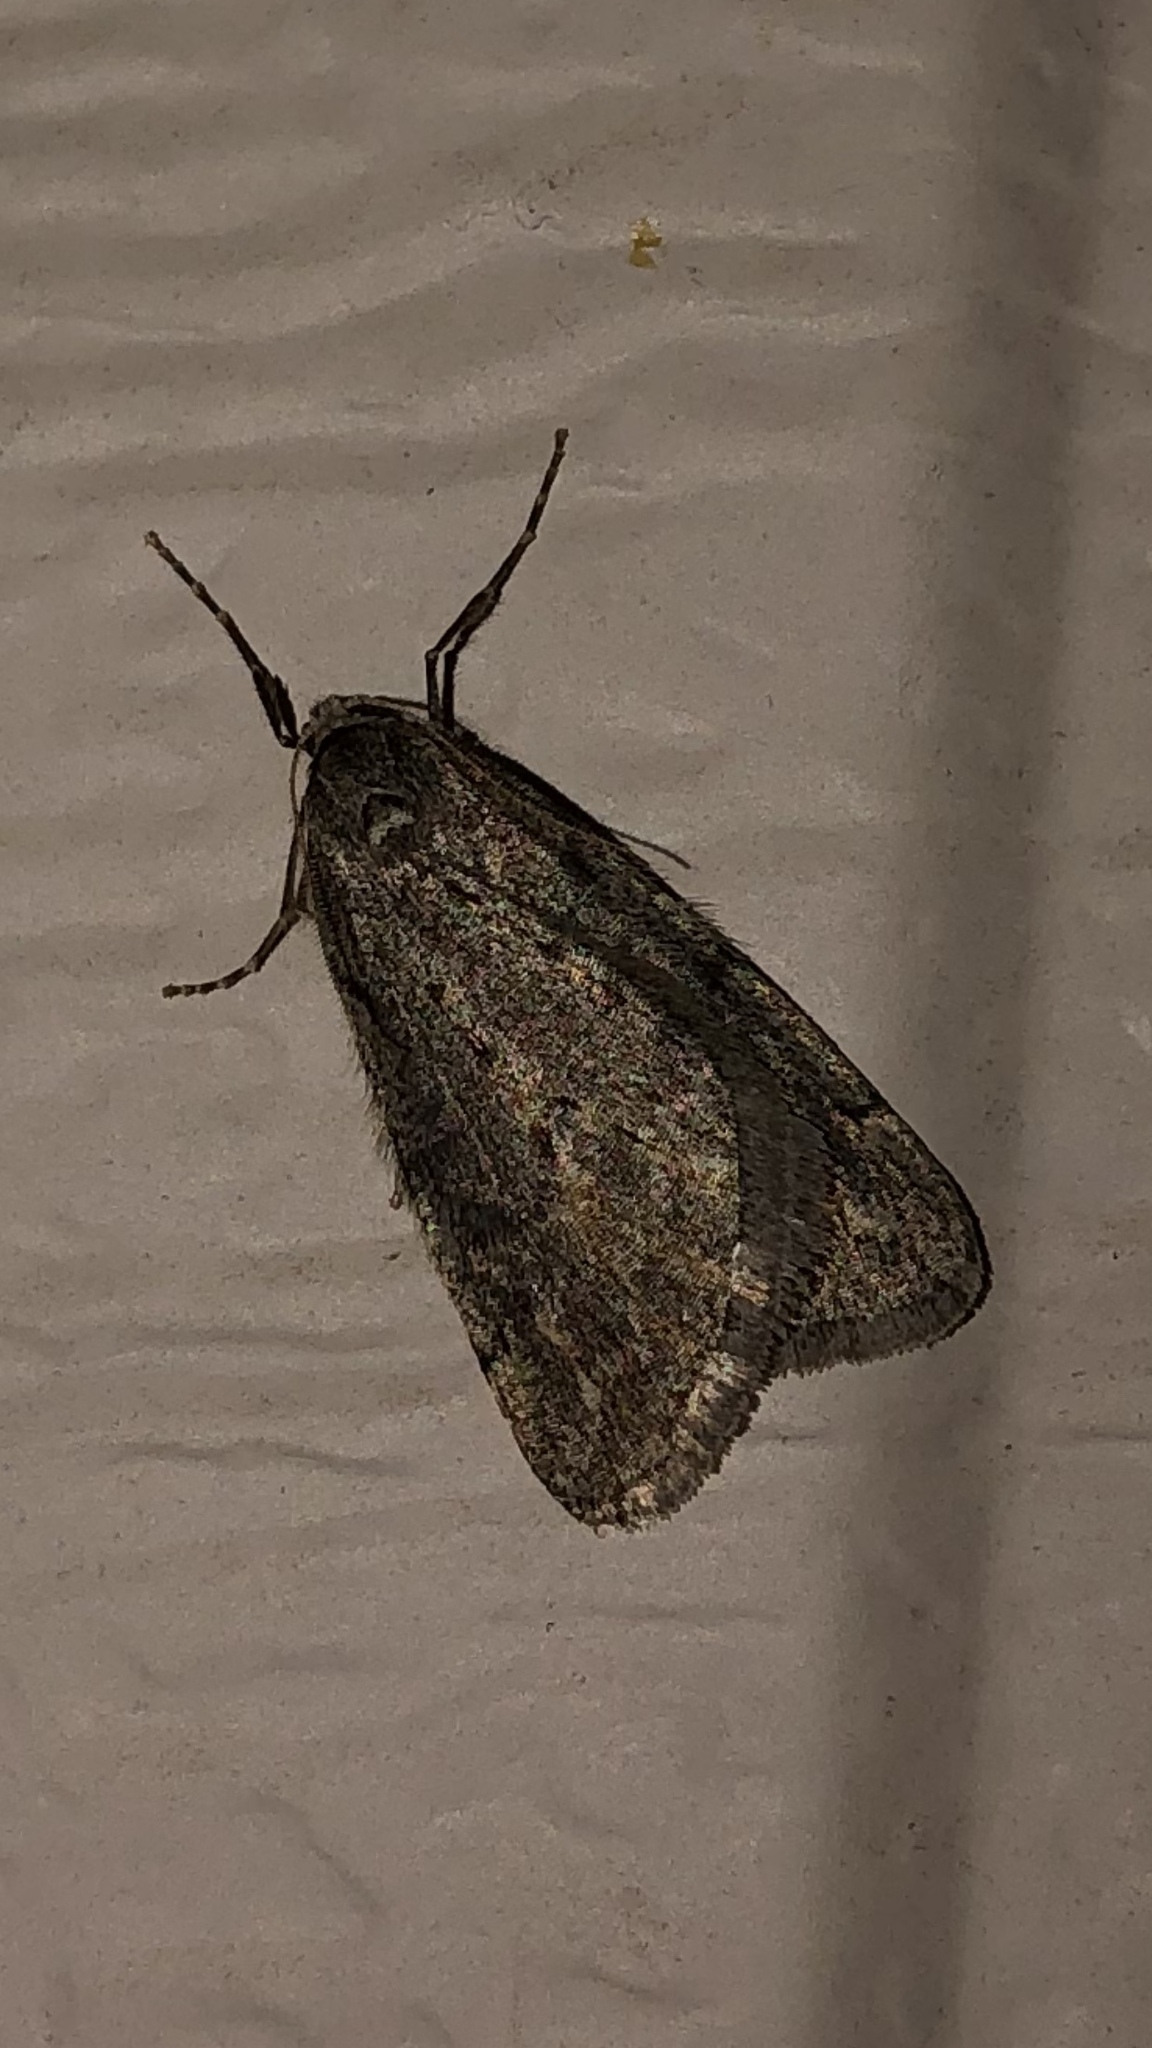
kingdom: Animalia
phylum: Arthropoda
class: Insecta
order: Lepidoptera
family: Geometridae
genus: Paleacrita
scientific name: Paleacrita vernata
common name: Spring cankerworm
